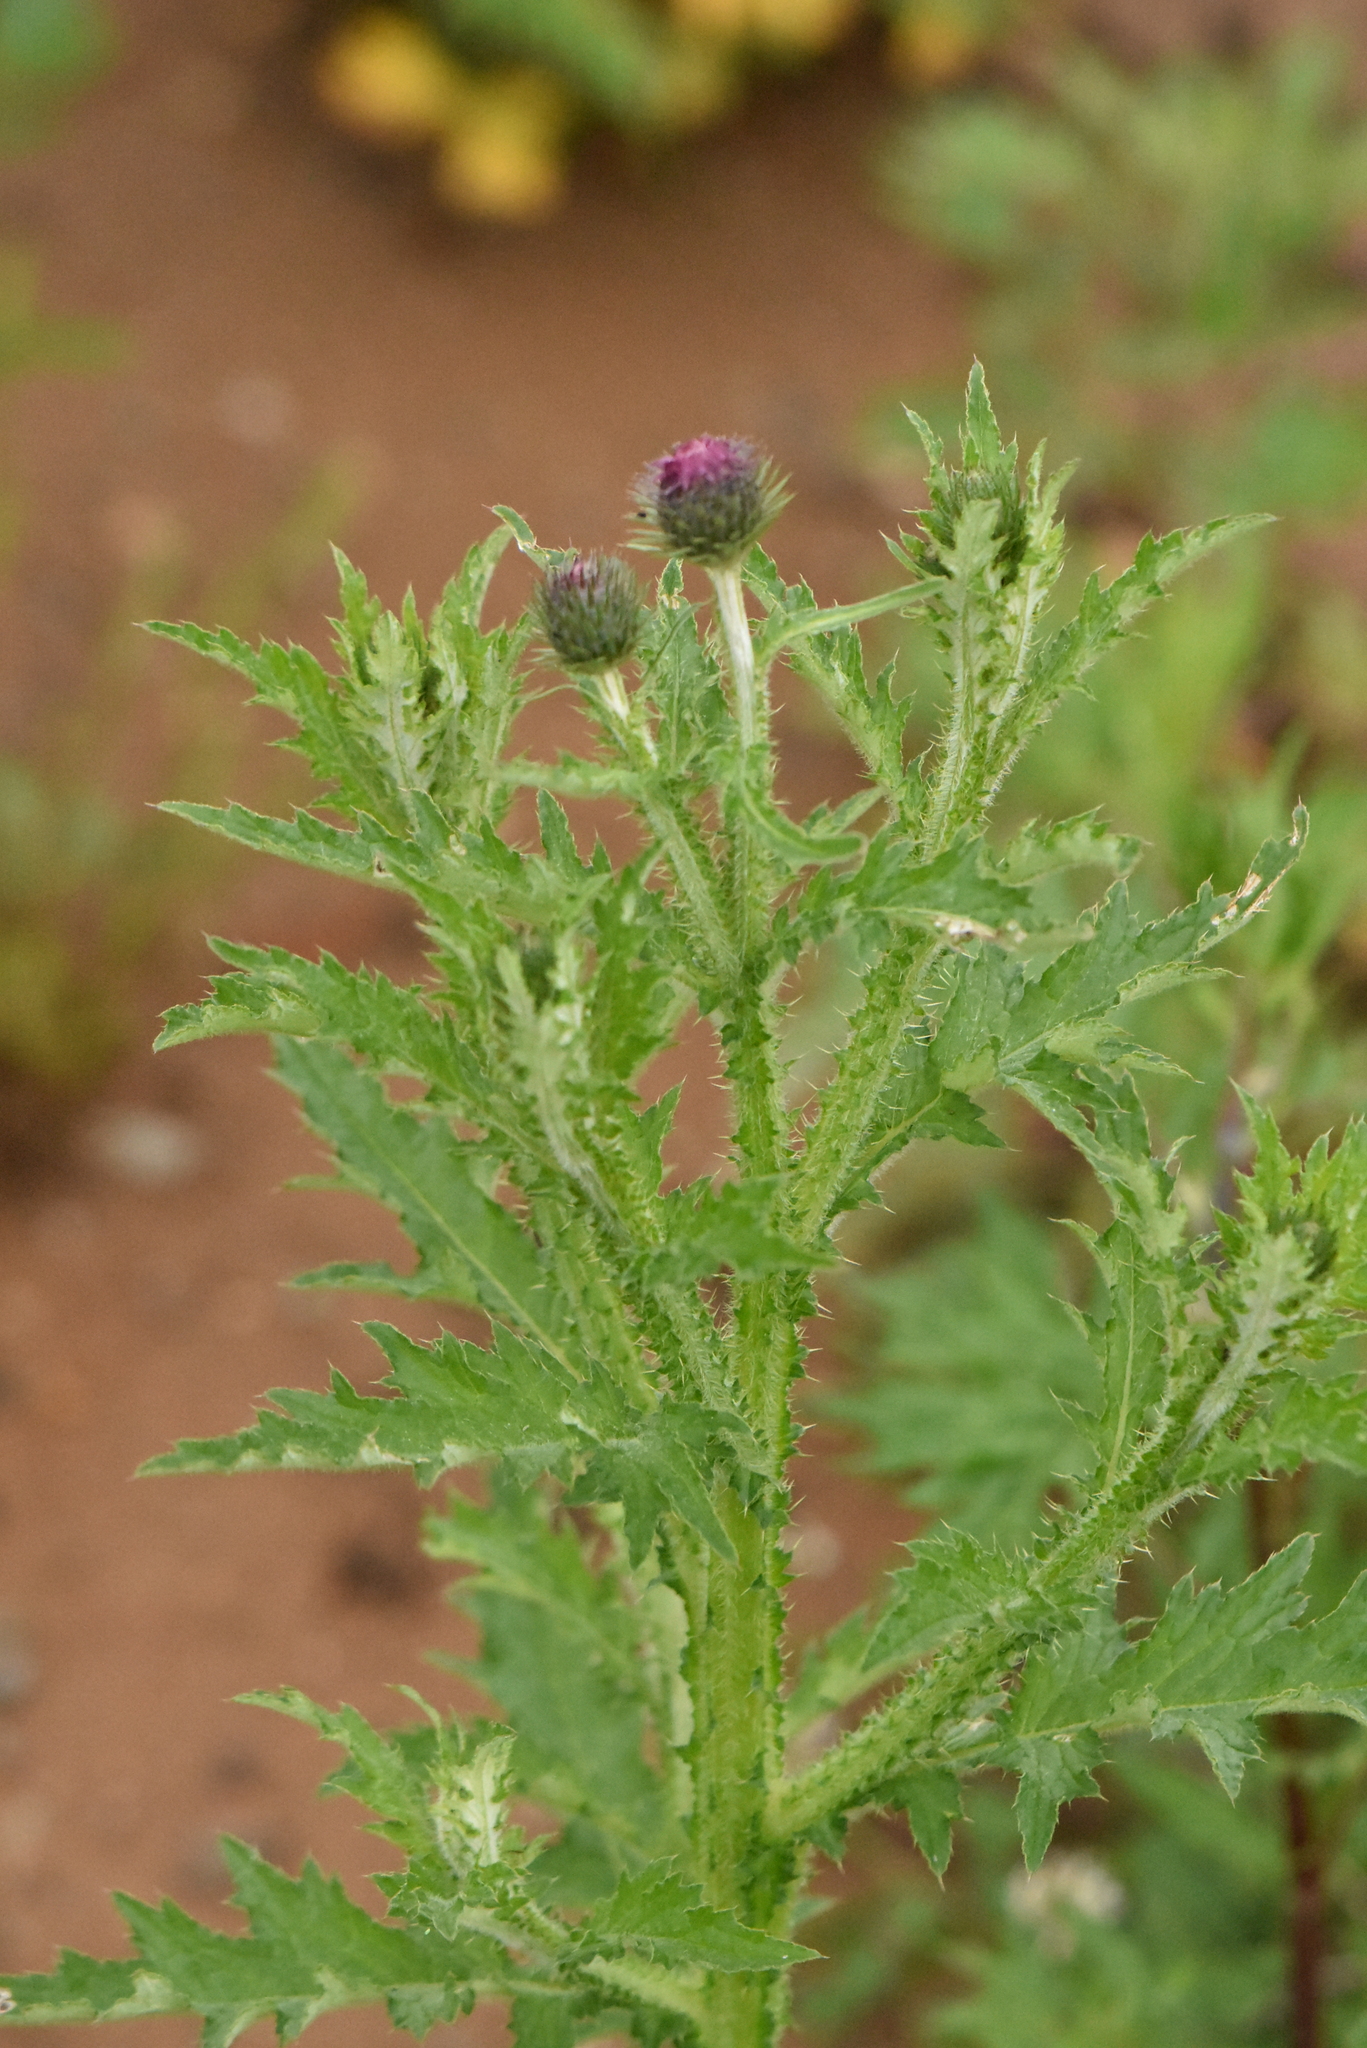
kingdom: Plantae
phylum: Tracheophyta
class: Magnoliopsida
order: Asterales
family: Asteraceae
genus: Carduus
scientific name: Carduus crispus
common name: Welted thistle
